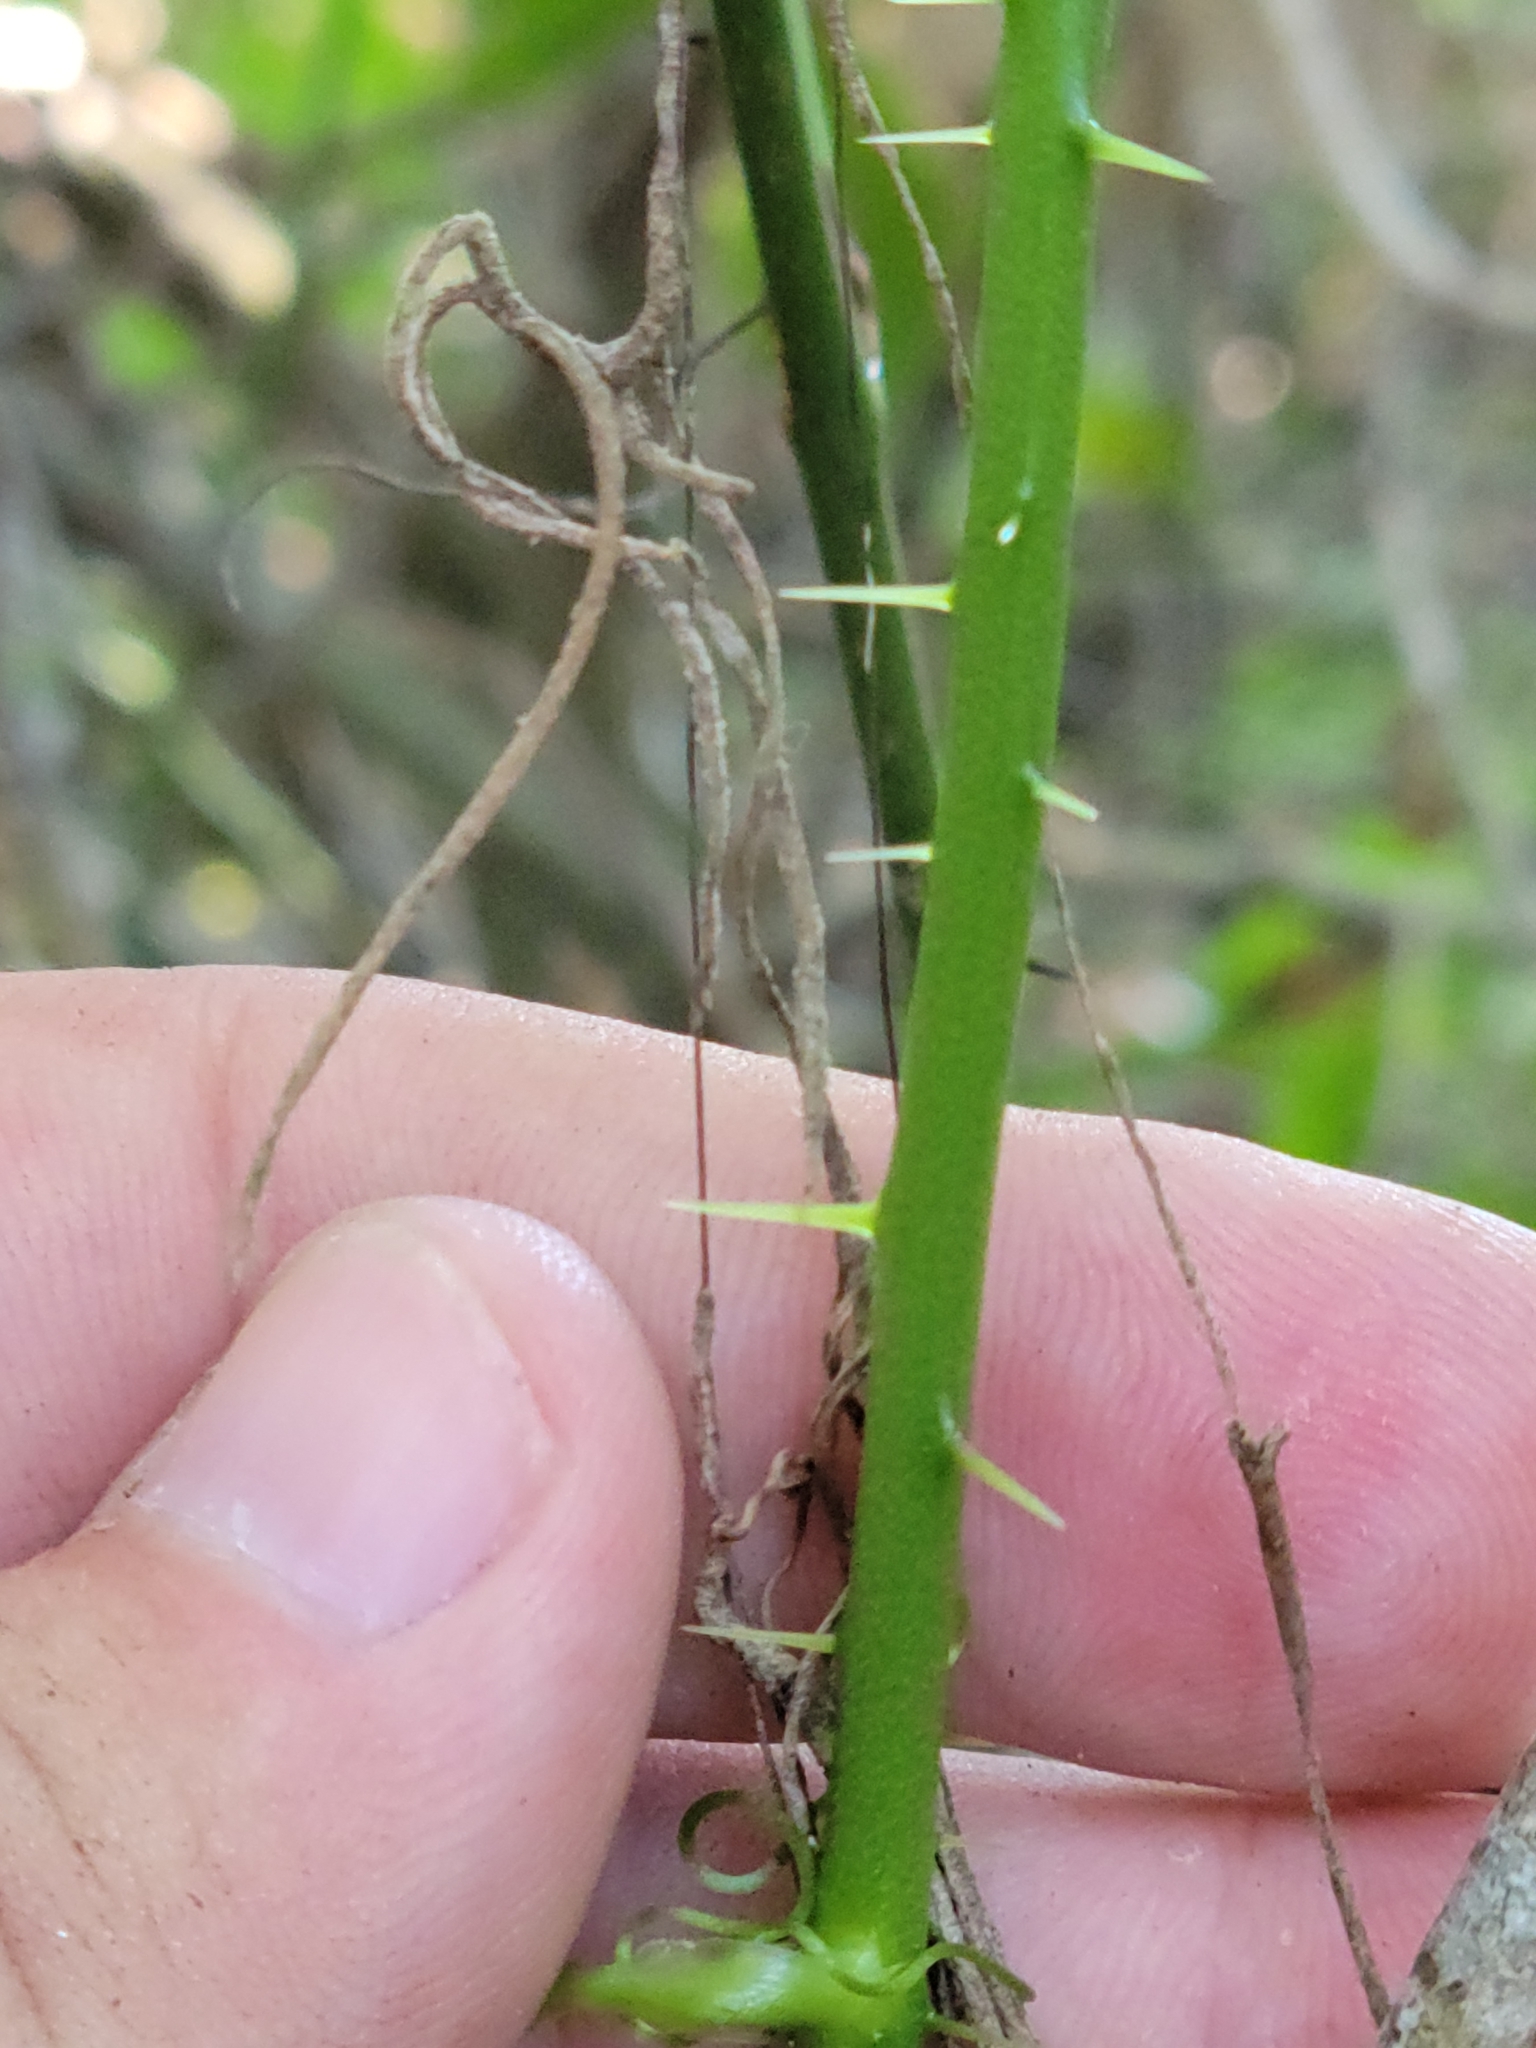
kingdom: Plantae
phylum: Tracheophyta
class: Liliopsida
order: Liliales
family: Smilacaceae
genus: Smilax
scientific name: Smilax tamnoides
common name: Hellfetter
